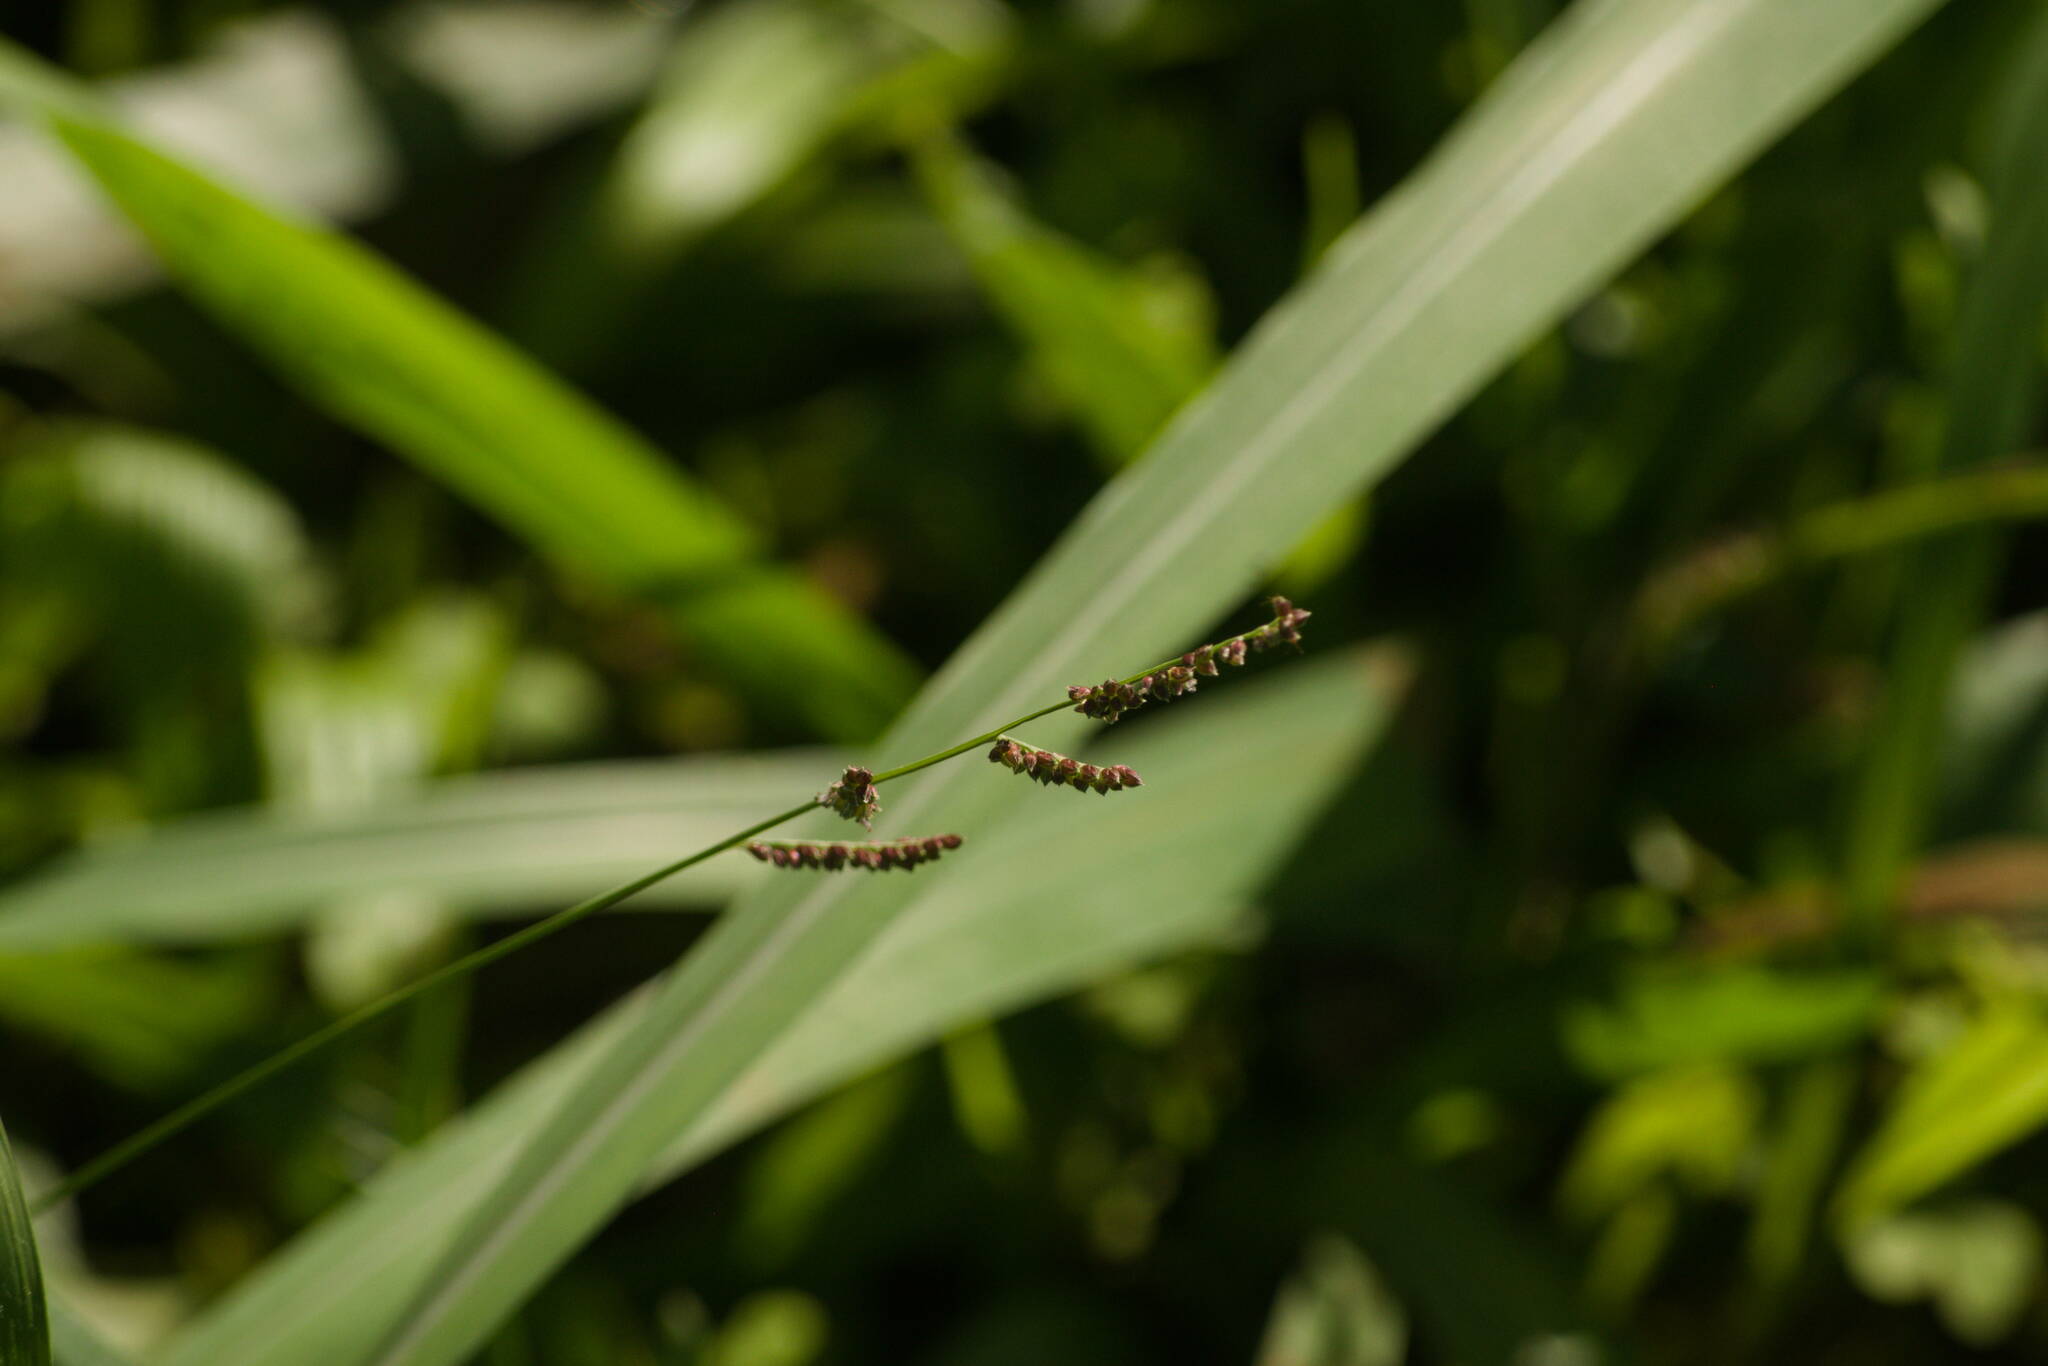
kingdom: Plantae
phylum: Tracheophyta
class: Liliopsida
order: Poales
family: Poaceae
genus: Echinochloa
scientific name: Echinochloa colonum
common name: Jungle rice
